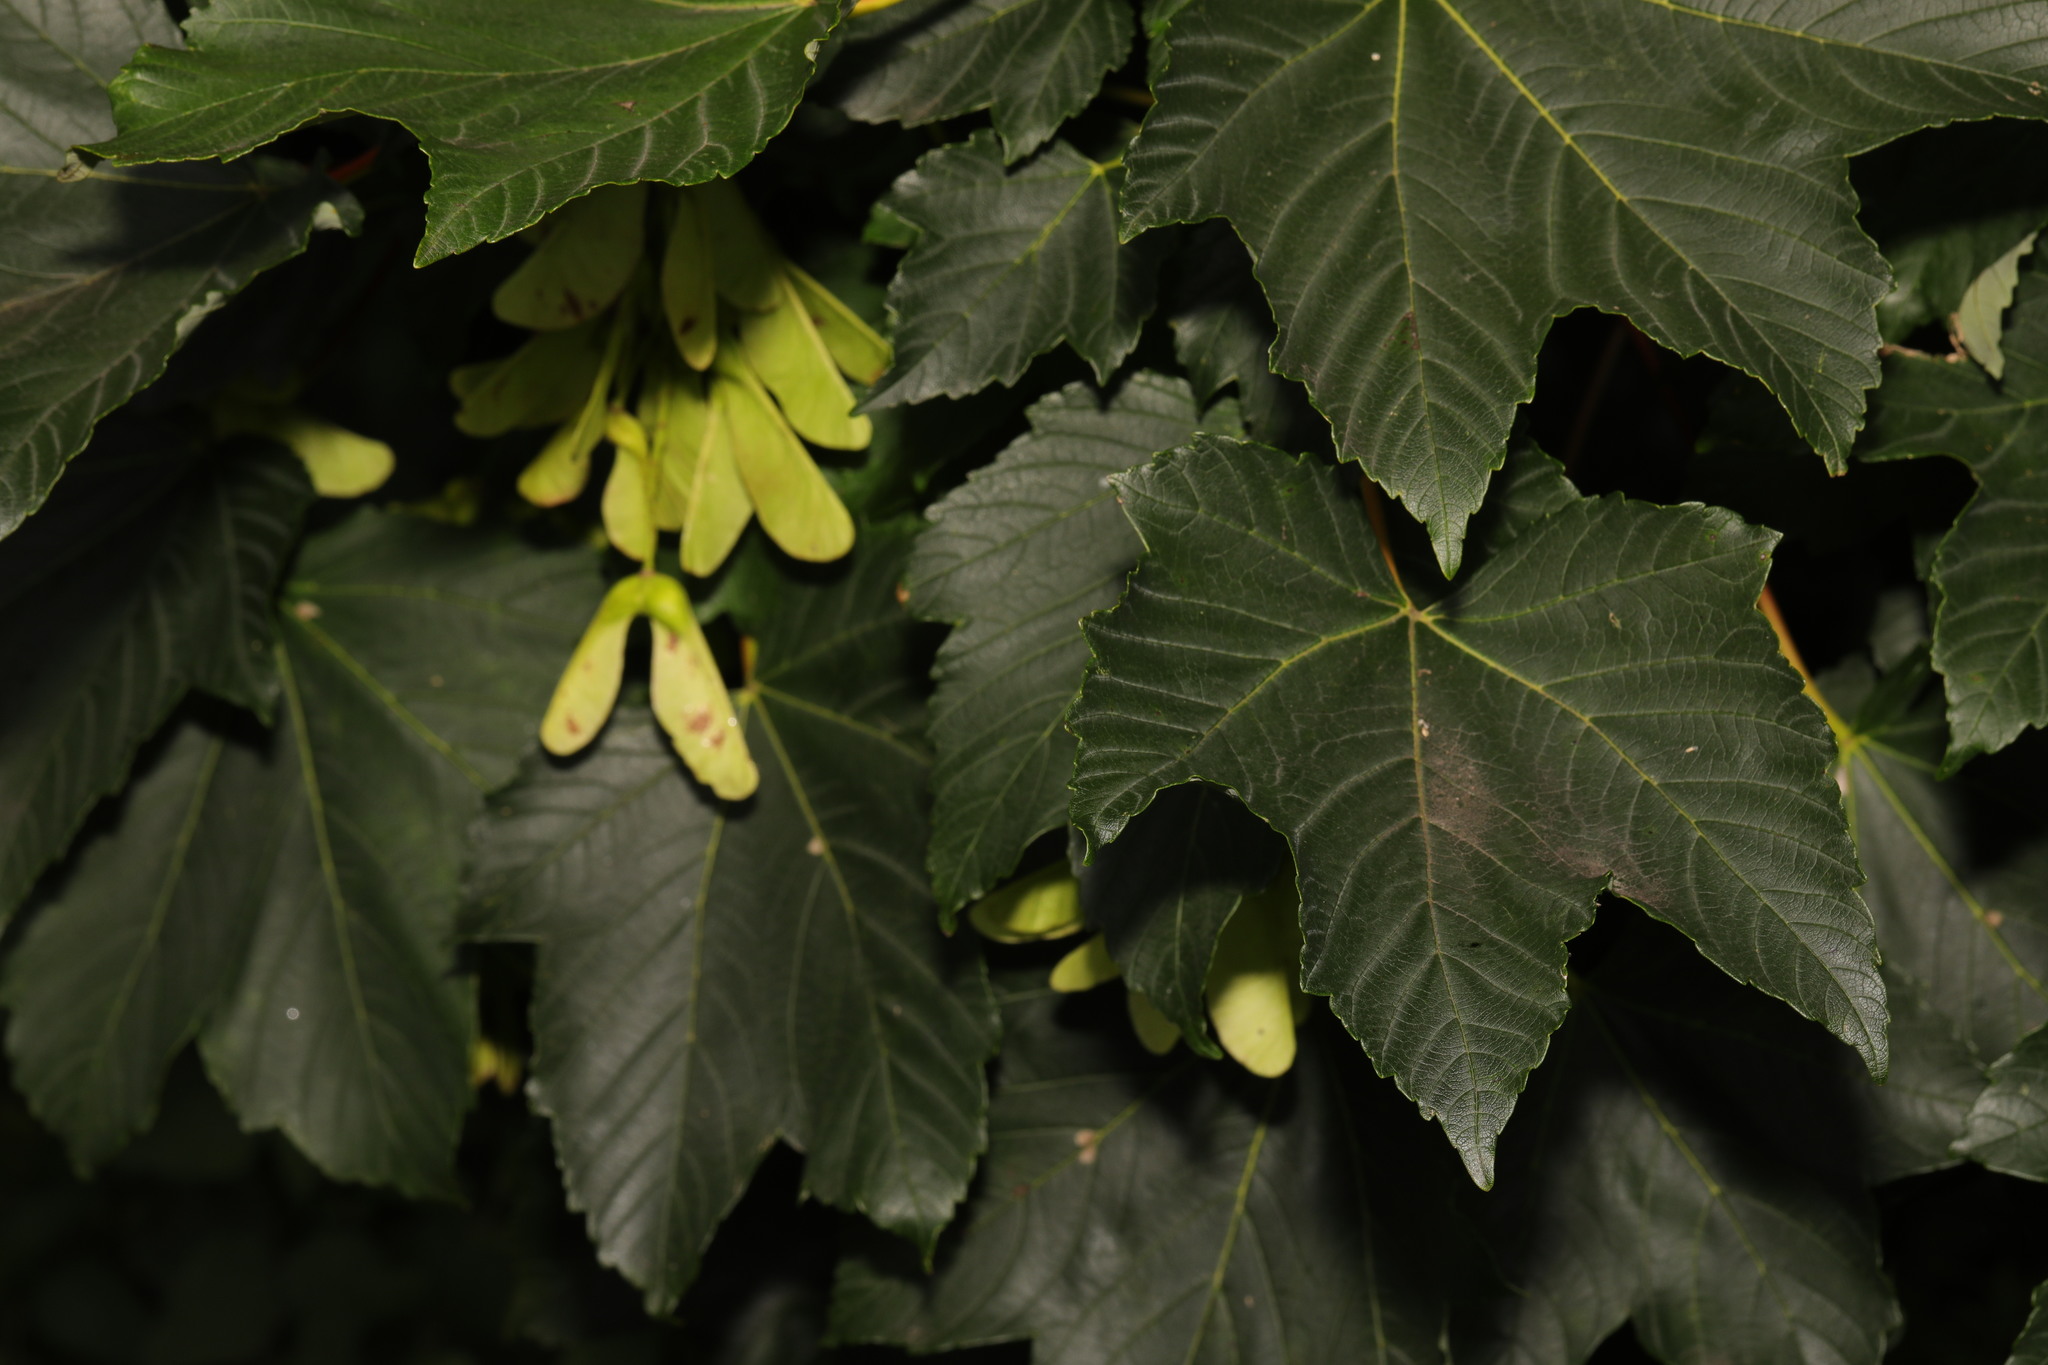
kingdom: Plantae
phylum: Tracheophyta
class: Magnoliopsida
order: Sapindales
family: Sapindaceae
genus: Acer
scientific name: Acer pseudoplatanus
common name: Sycamore
